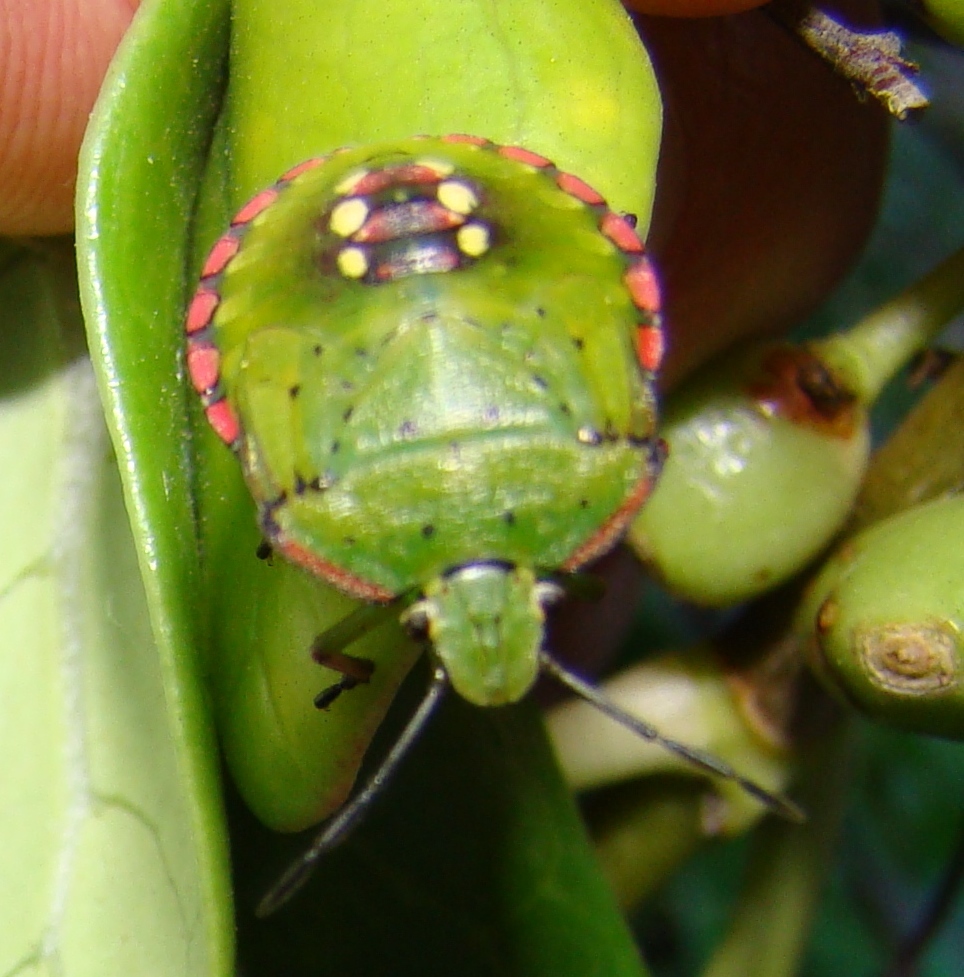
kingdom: Animalia
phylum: Arthropoda
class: Insecta
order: Hemiptera
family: Pentatomidae
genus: Nezara
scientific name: Nezara viridula
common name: Southern green stink bug
